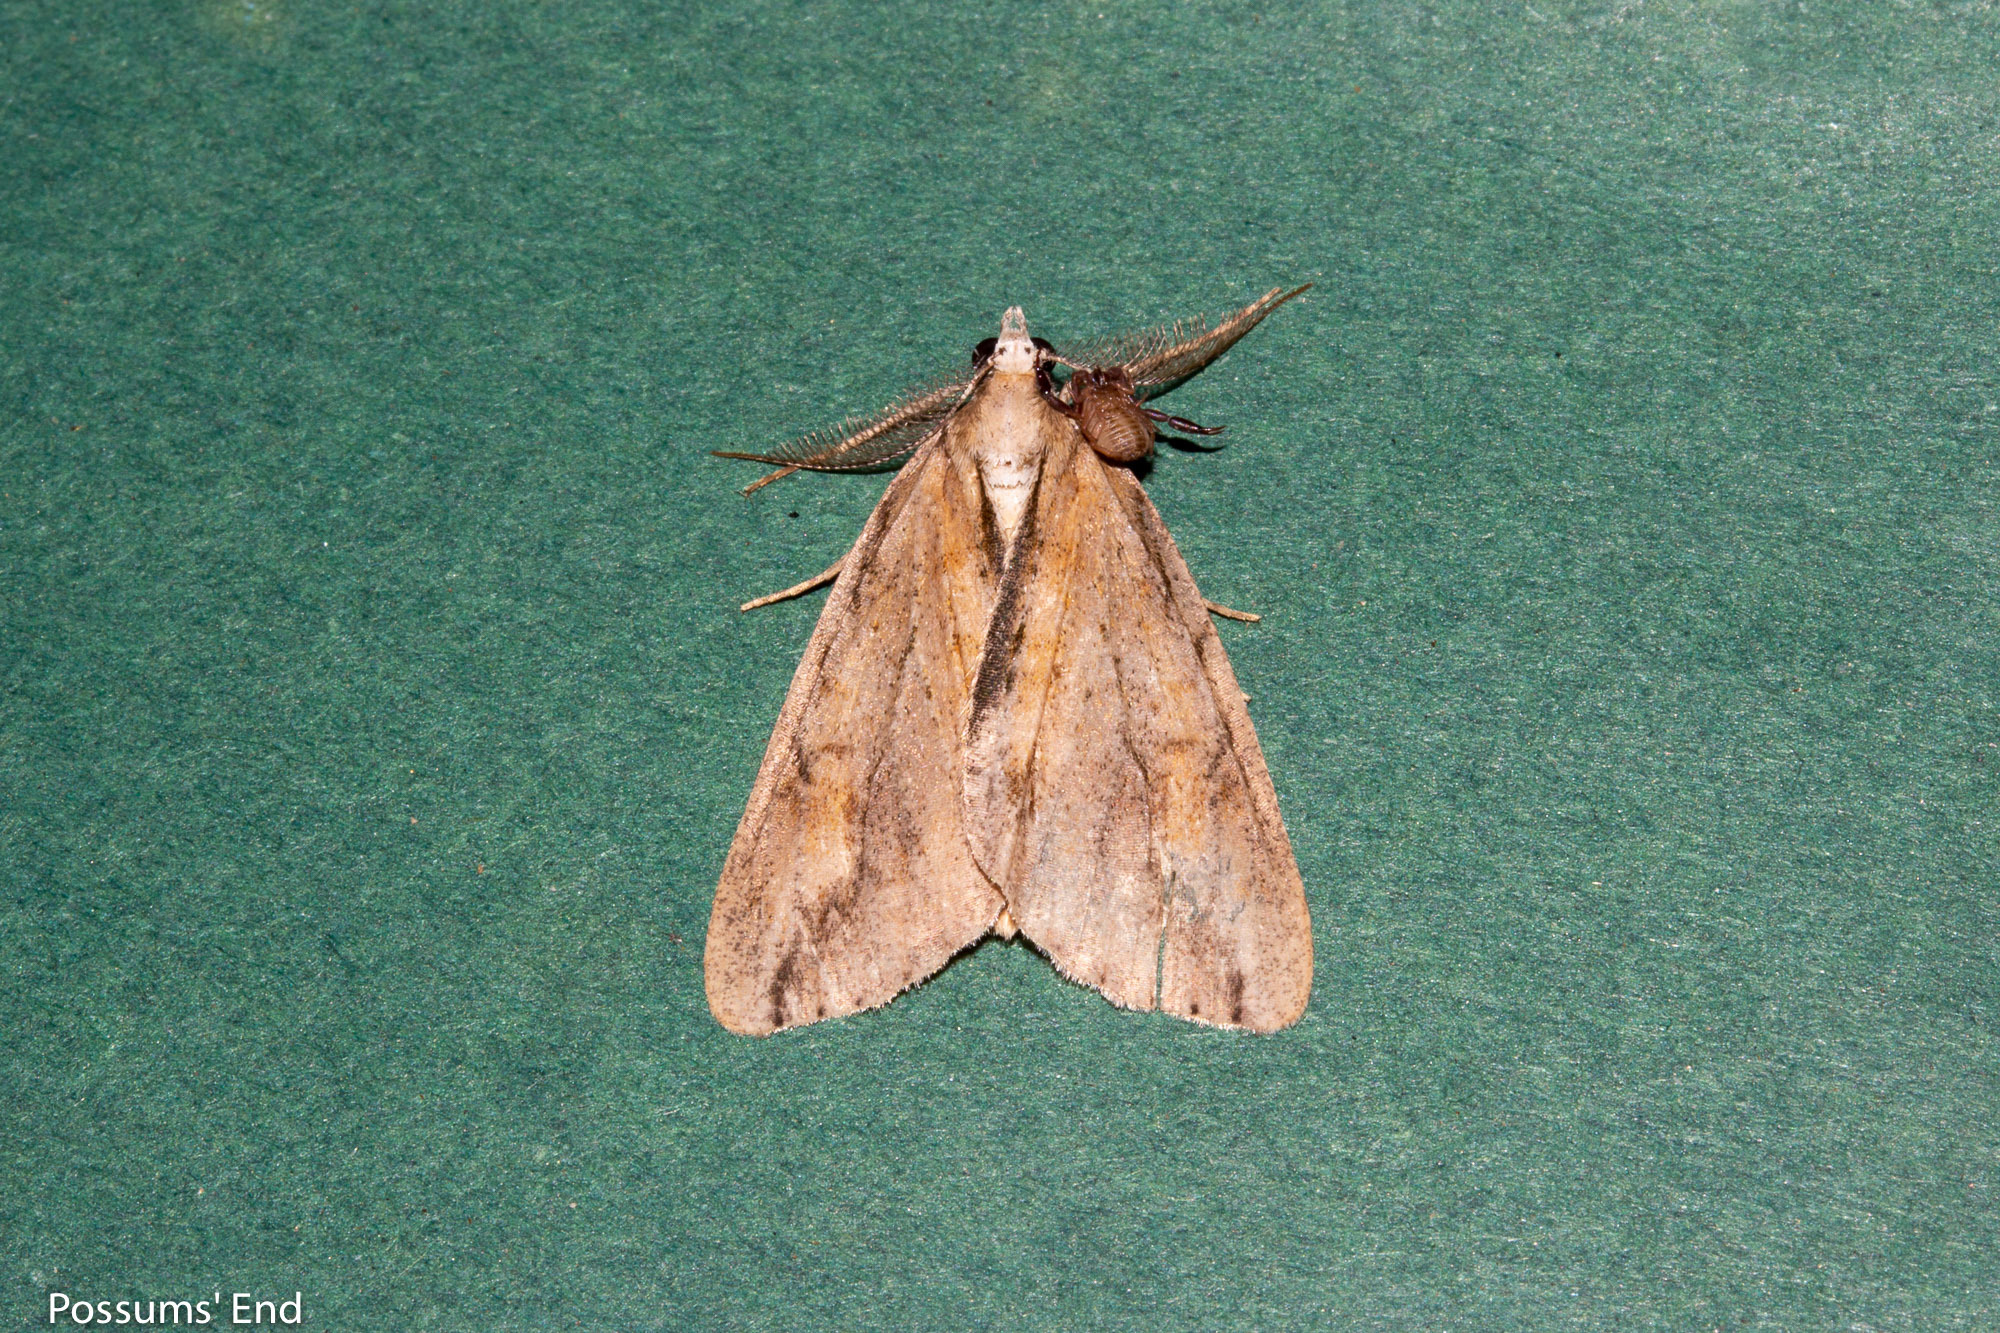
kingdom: Animalia
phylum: Arthropoda
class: Insecta
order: Lepidoptera
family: Geometridae
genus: Pseudocoremia
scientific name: Pseudocoremia lupinata
